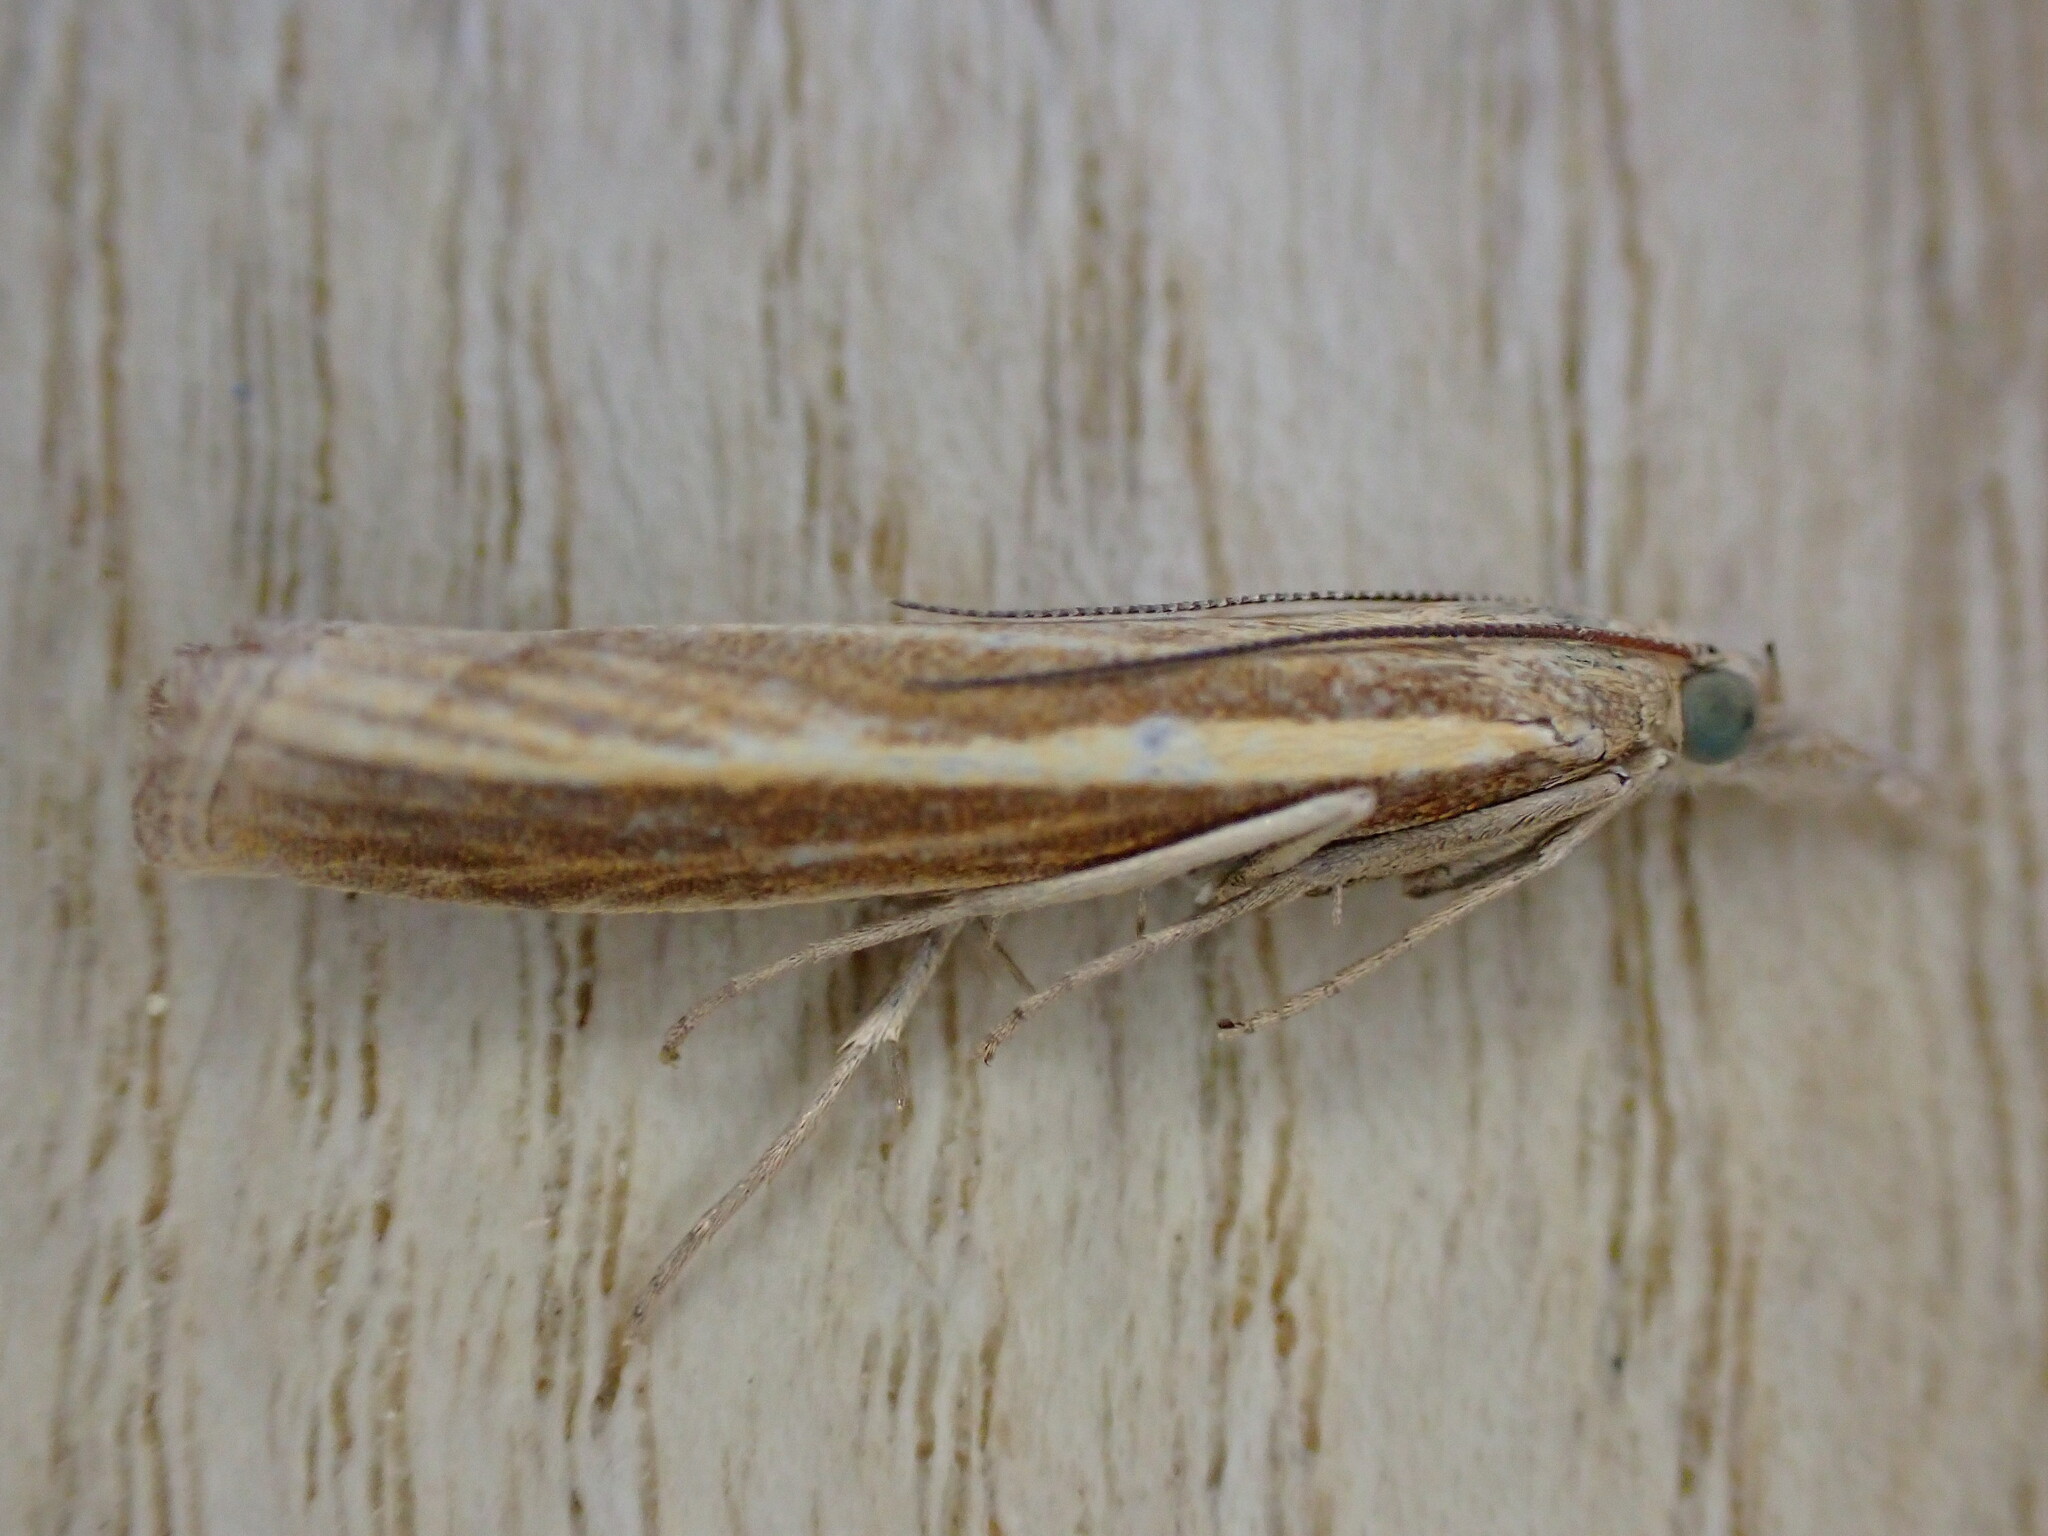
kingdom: Animalia
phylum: Arthropoda
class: Insecta
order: Lepidoptera
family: Crambidae
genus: Agriphila
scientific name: Agriphila tristellus
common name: Common grass-veneer
